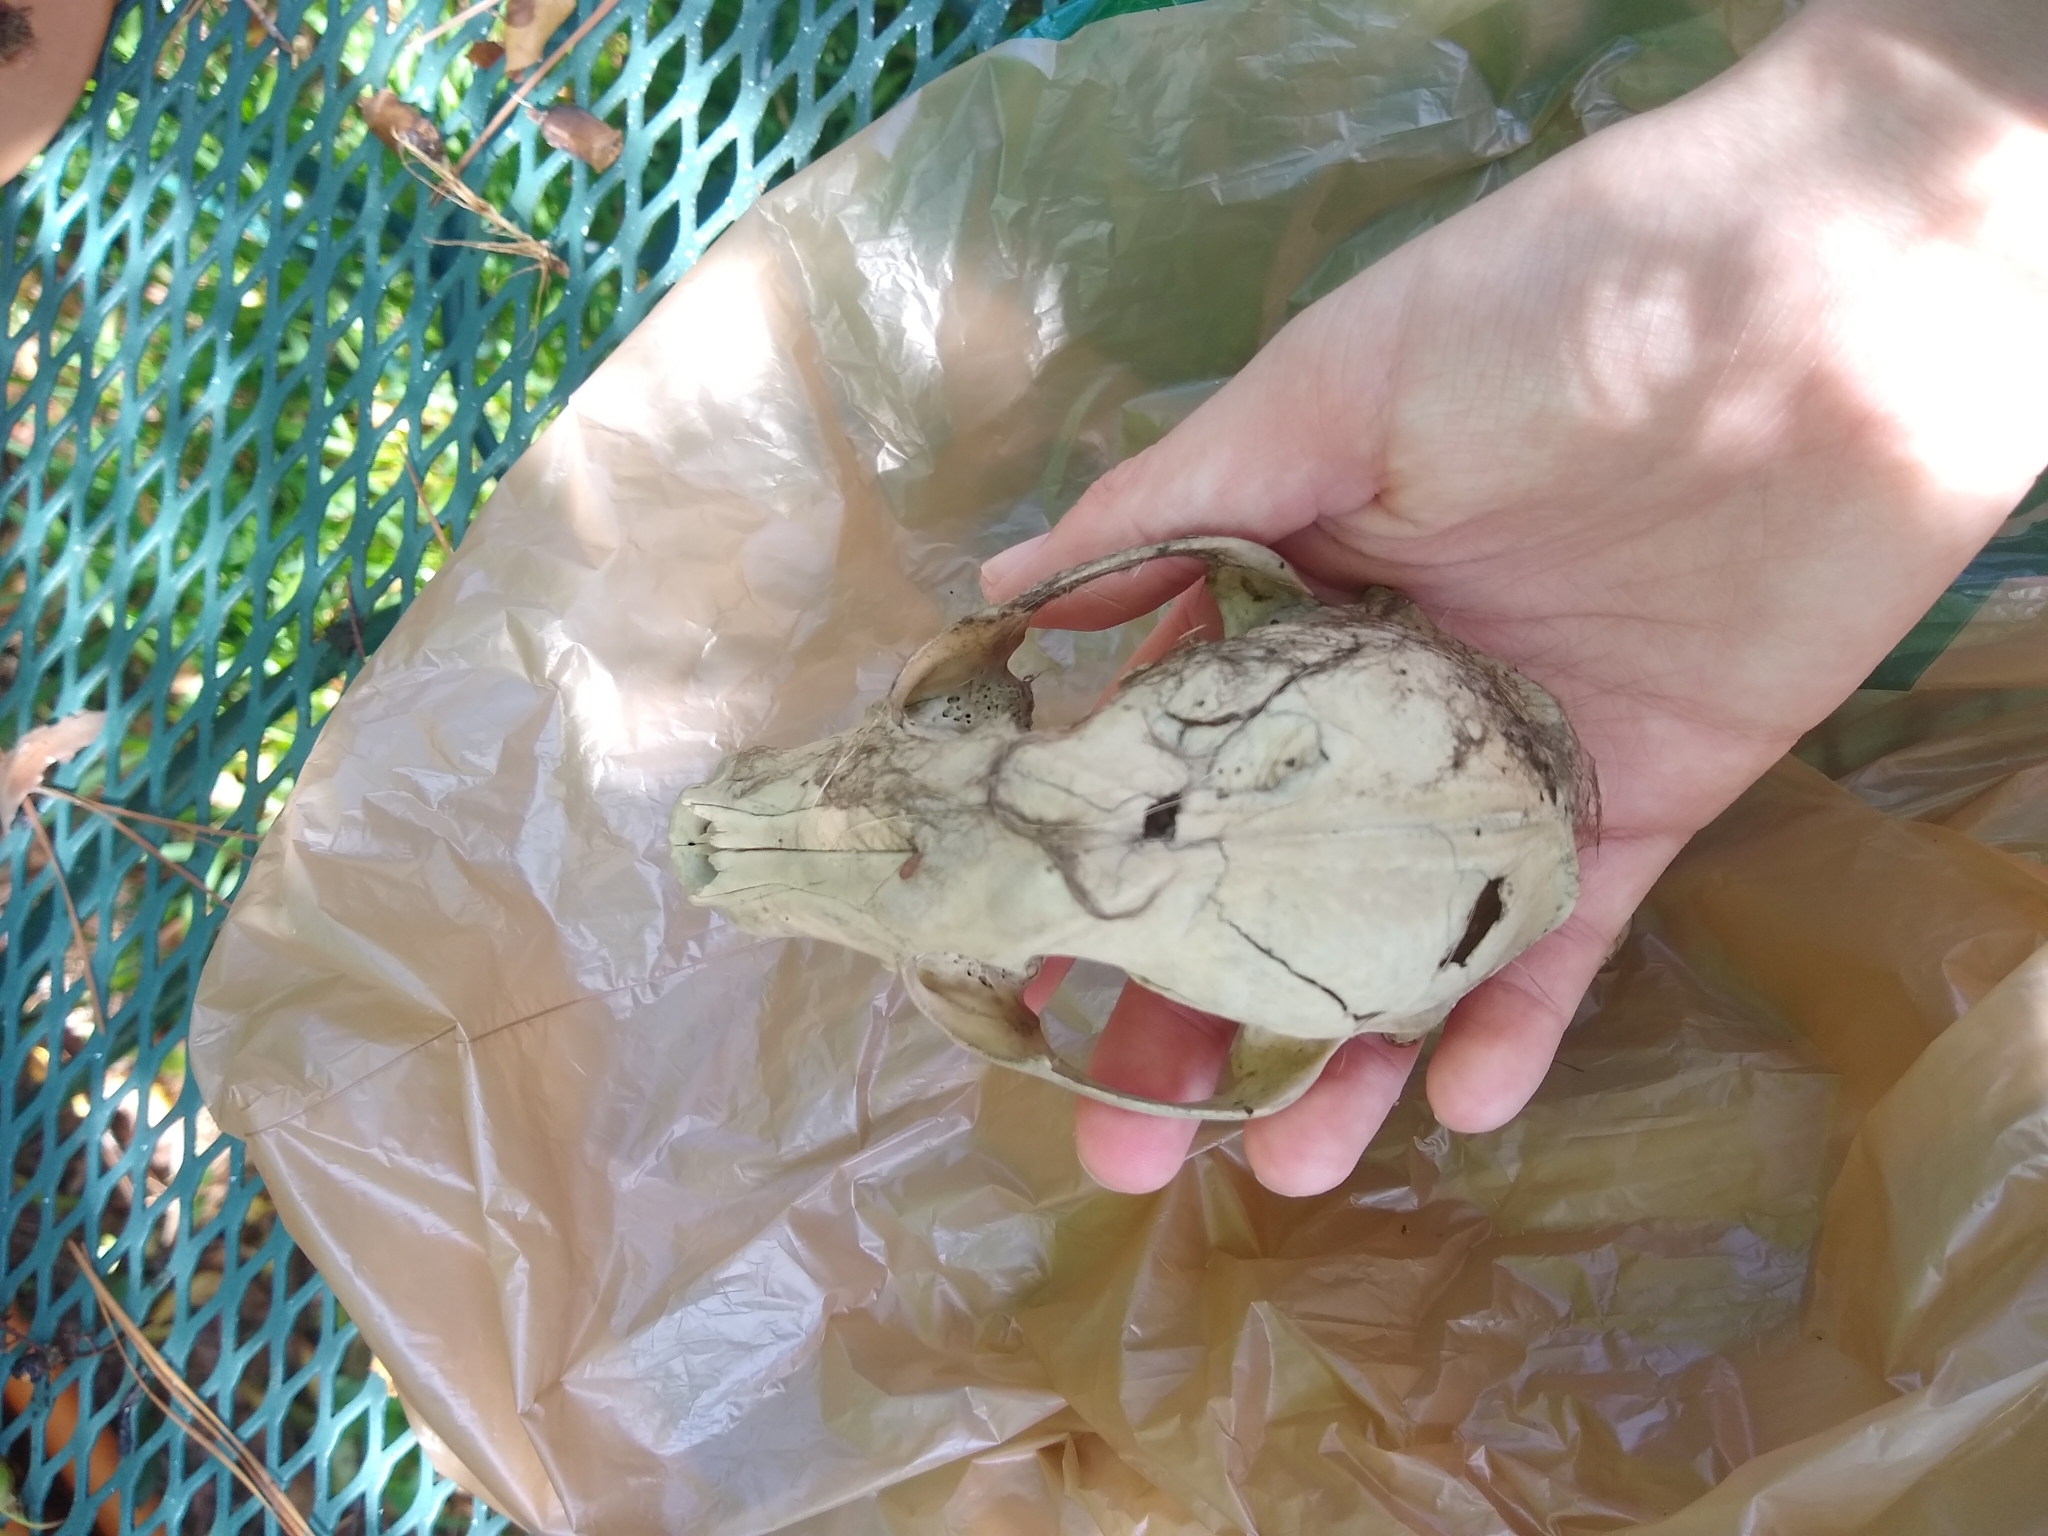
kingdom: Animalia
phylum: Chordata
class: Mammalia
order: Carnivora
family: Procyonidae
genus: Procyon
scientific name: Procyon lotor
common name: Raccoon
